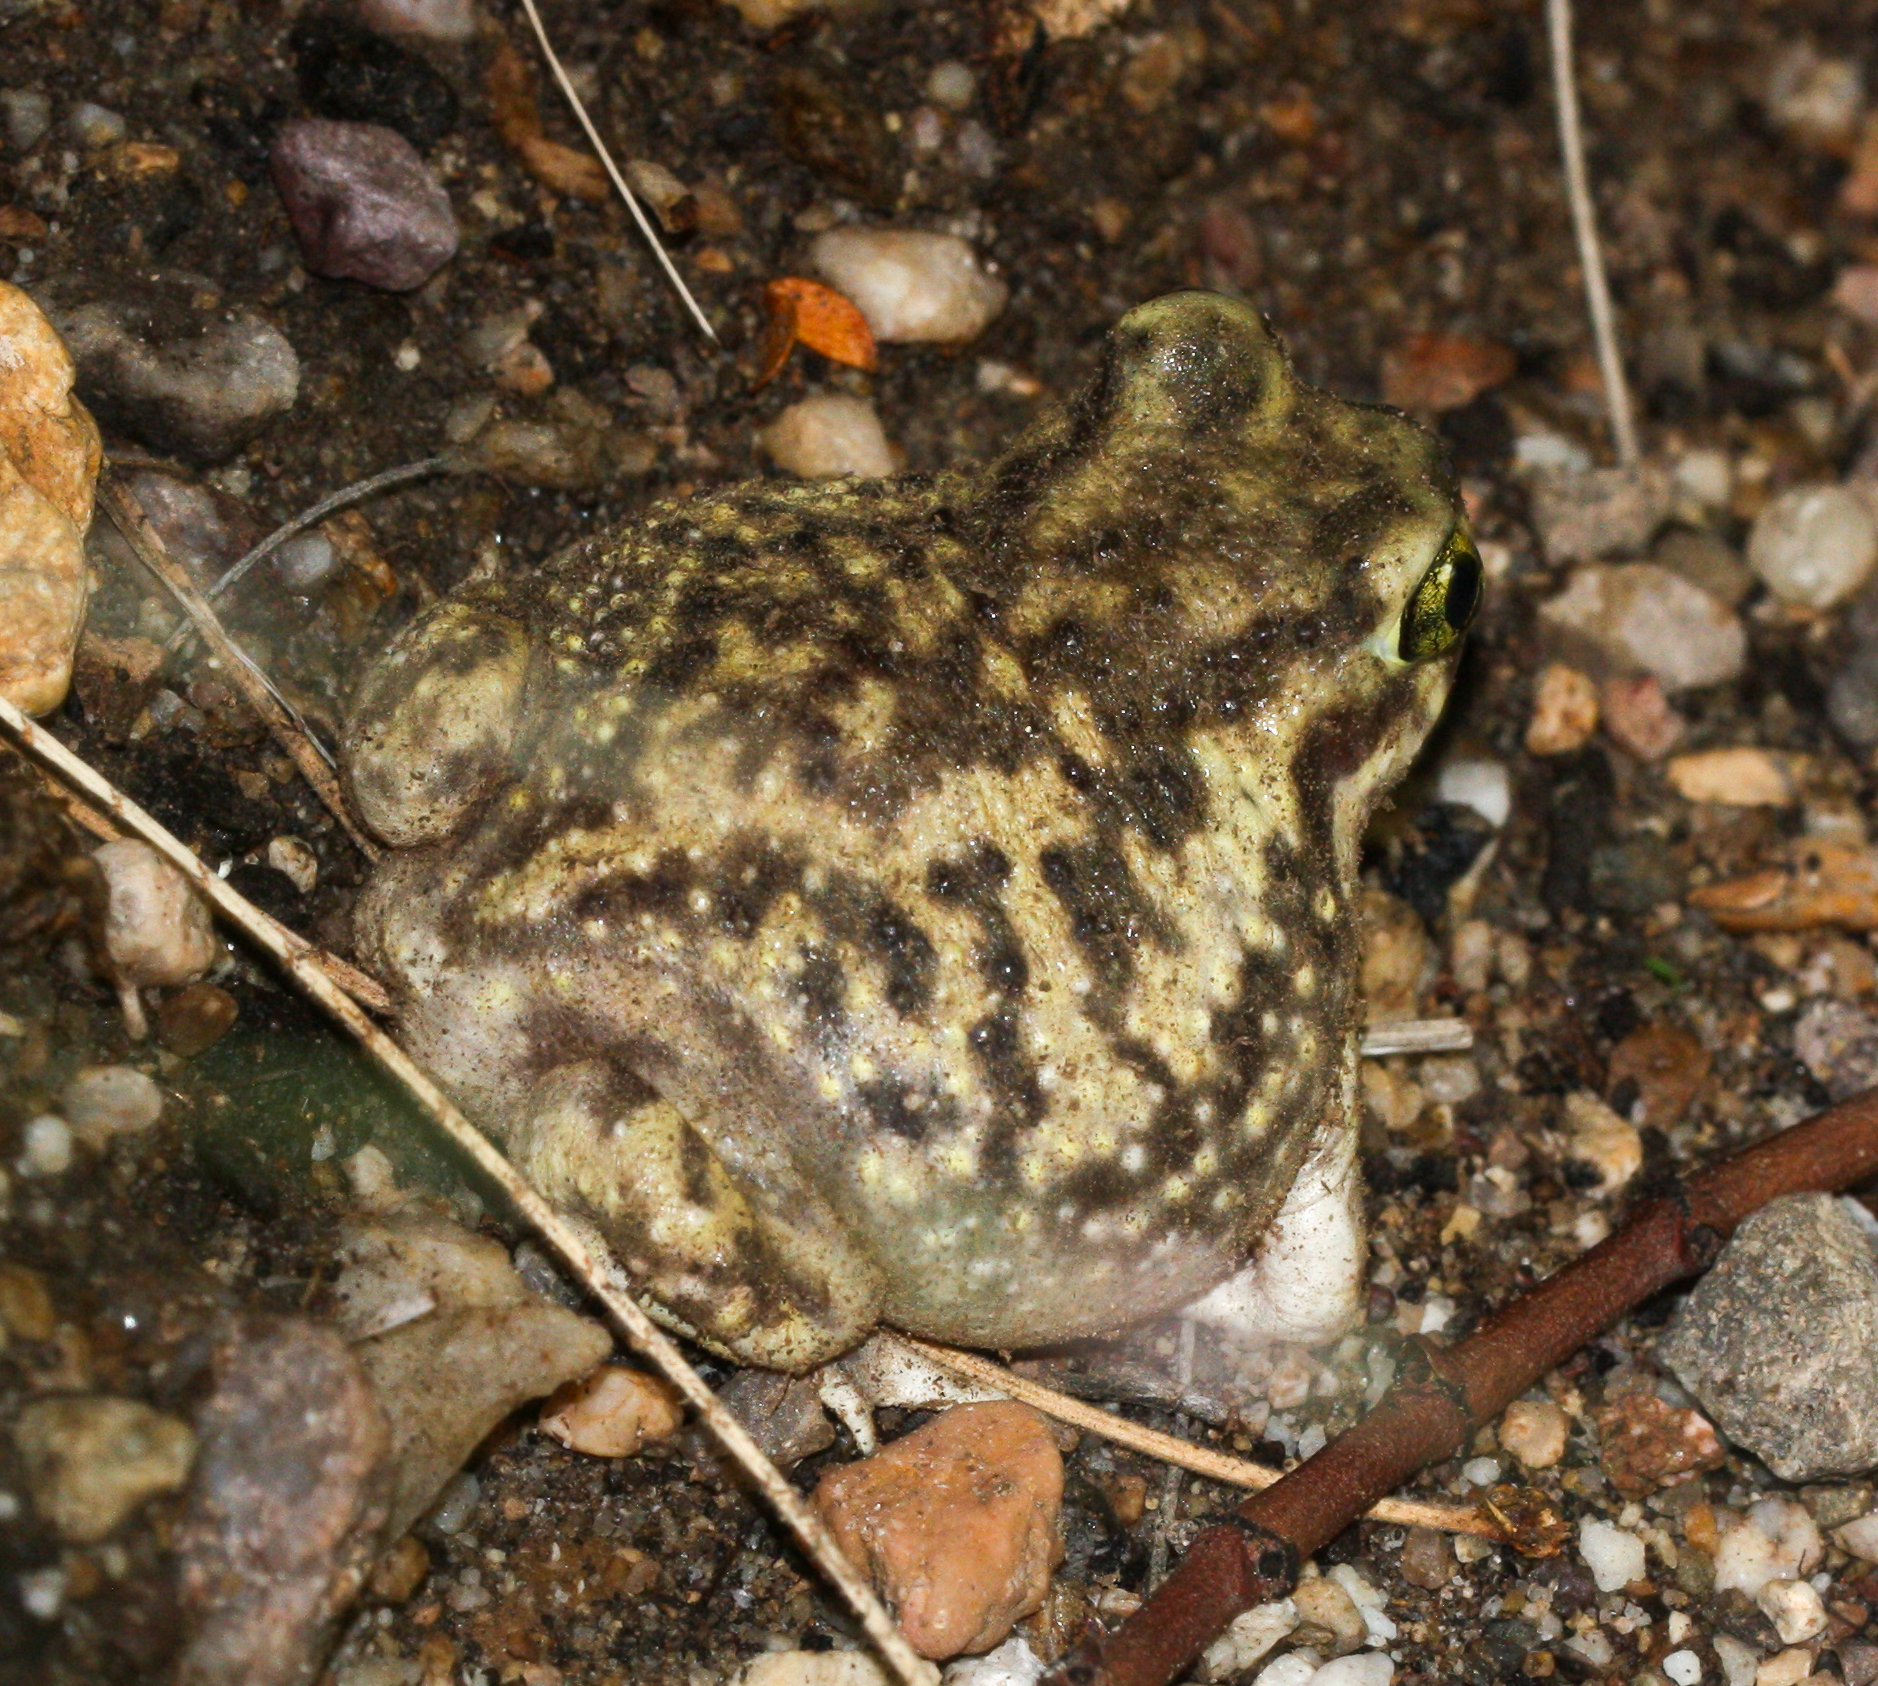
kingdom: Animalia
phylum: Chordata
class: Amphibia
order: Anura
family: Scaphiopodidae
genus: Scaphiopus
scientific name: Scaphiopus couchii
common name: Couch's spadefoot toad
